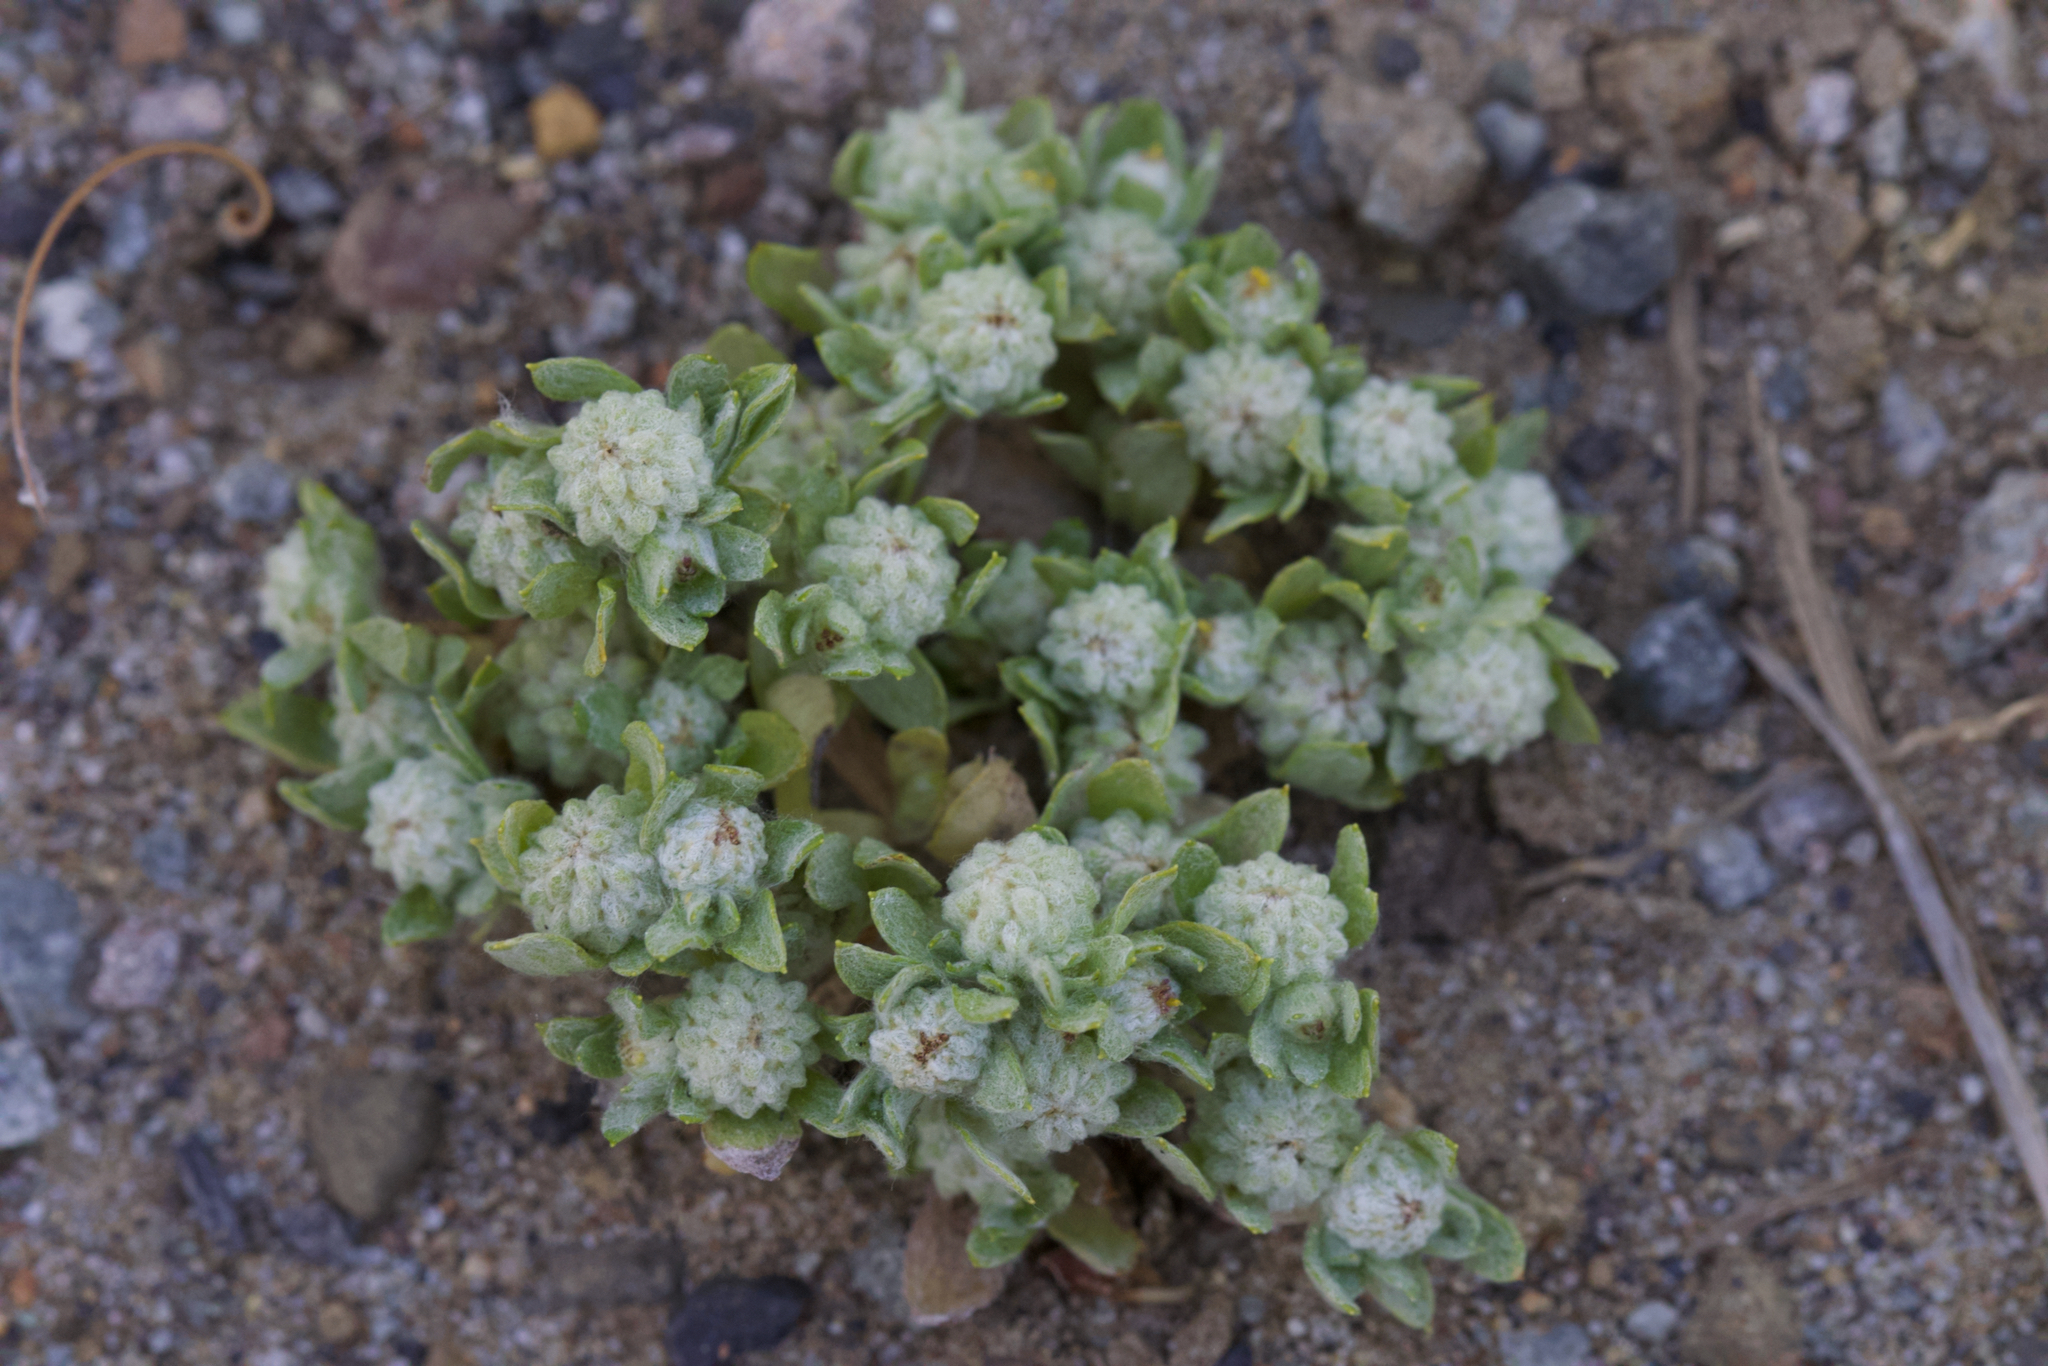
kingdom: Plantae
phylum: Tracheophyta
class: Magnoliopsida
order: Asterales
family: Asteraceae
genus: Psilocarphus
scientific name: Psilocarphus tenellus
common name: Slender woolly-marbles
